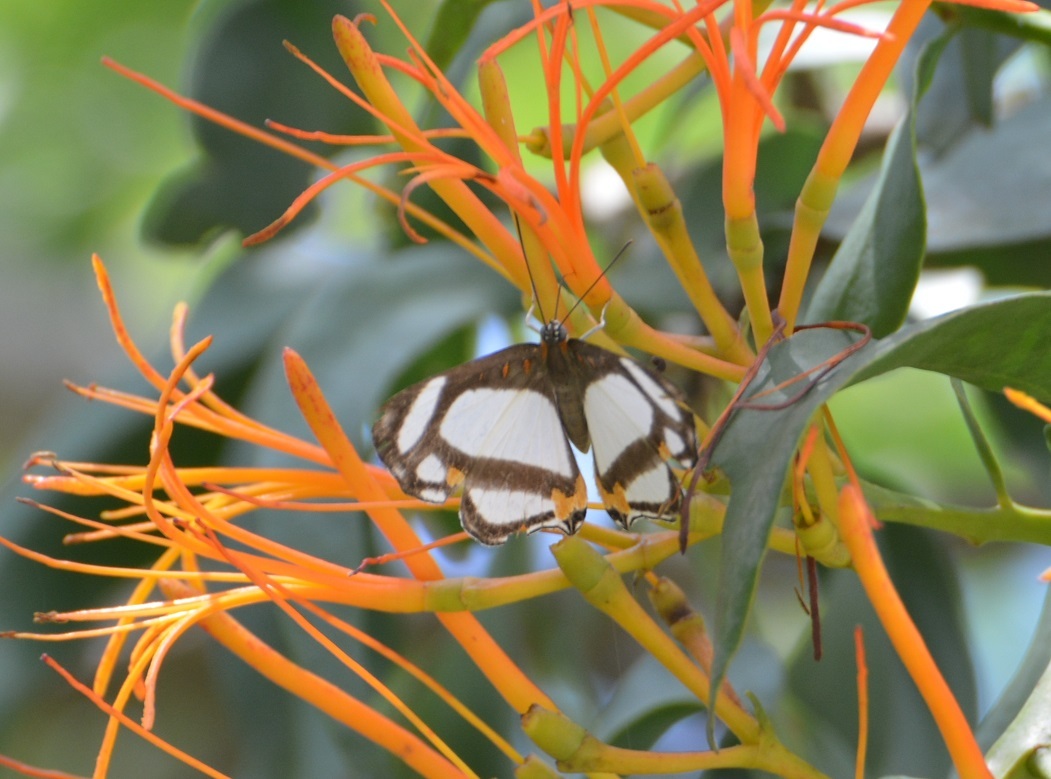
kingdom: Animalia
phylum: Arthropoda
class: Insecta
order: Lepidoptera
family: Riodinidae
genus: Thisbe
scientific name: Thisbe lycorias
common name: Banner metalmark
